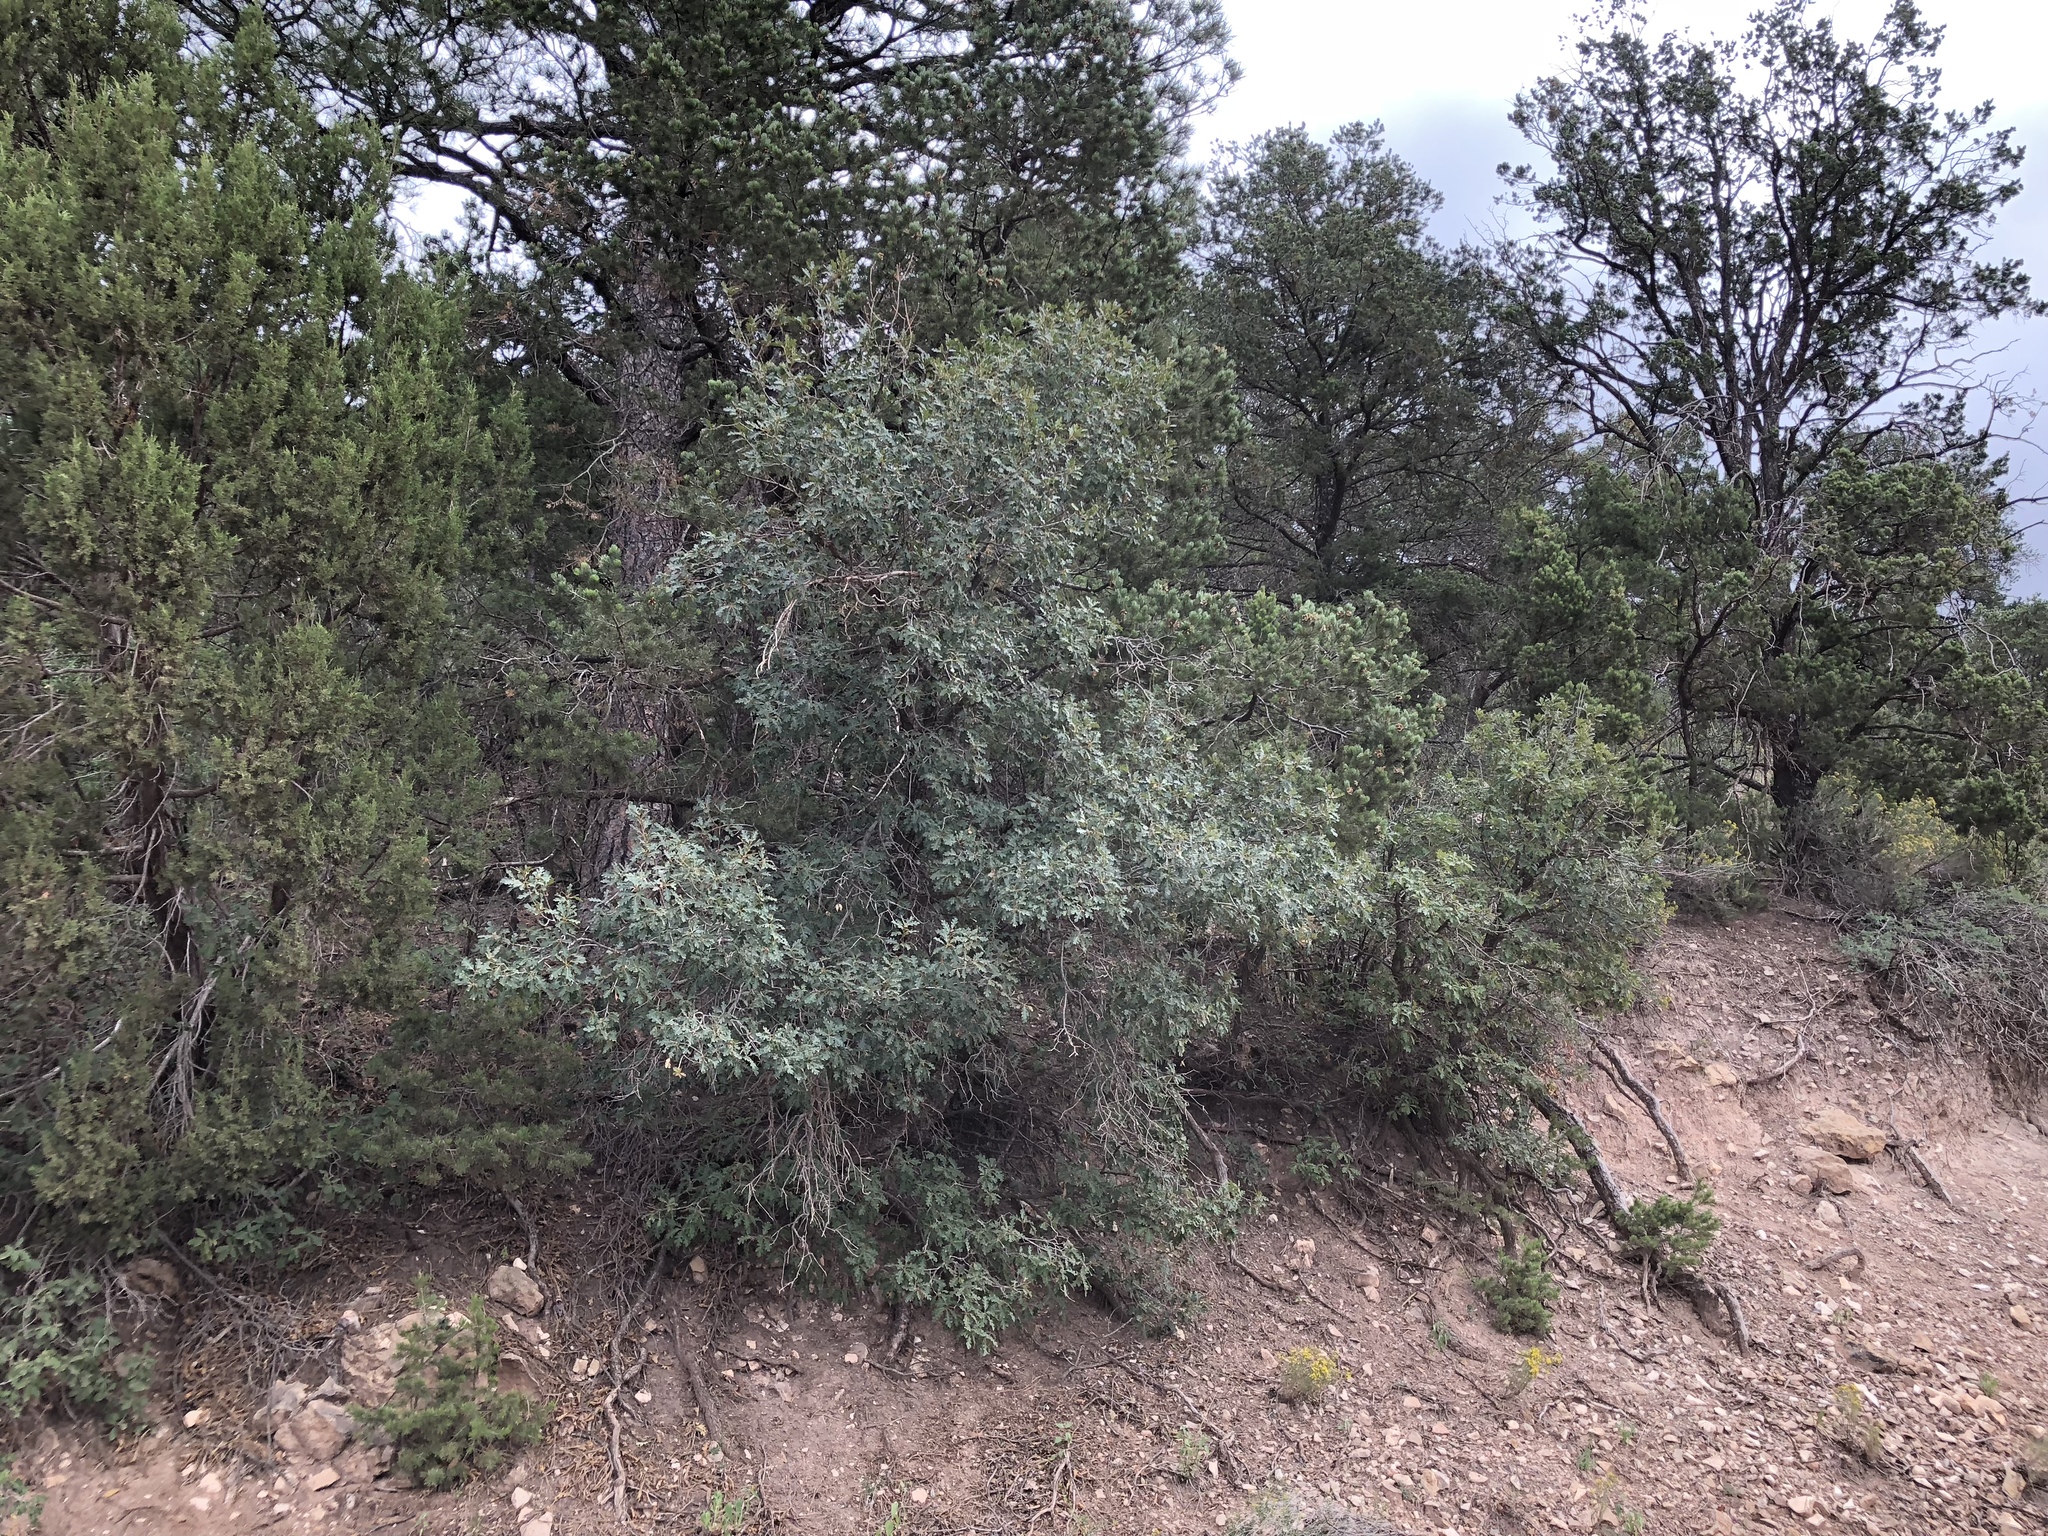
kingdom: Plantae
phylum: Tracheophyta
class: Magnoliopsida
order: Fagales
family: Fagaceae
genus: Quercus
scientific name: Quercus gambelii
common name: Gambel oak
